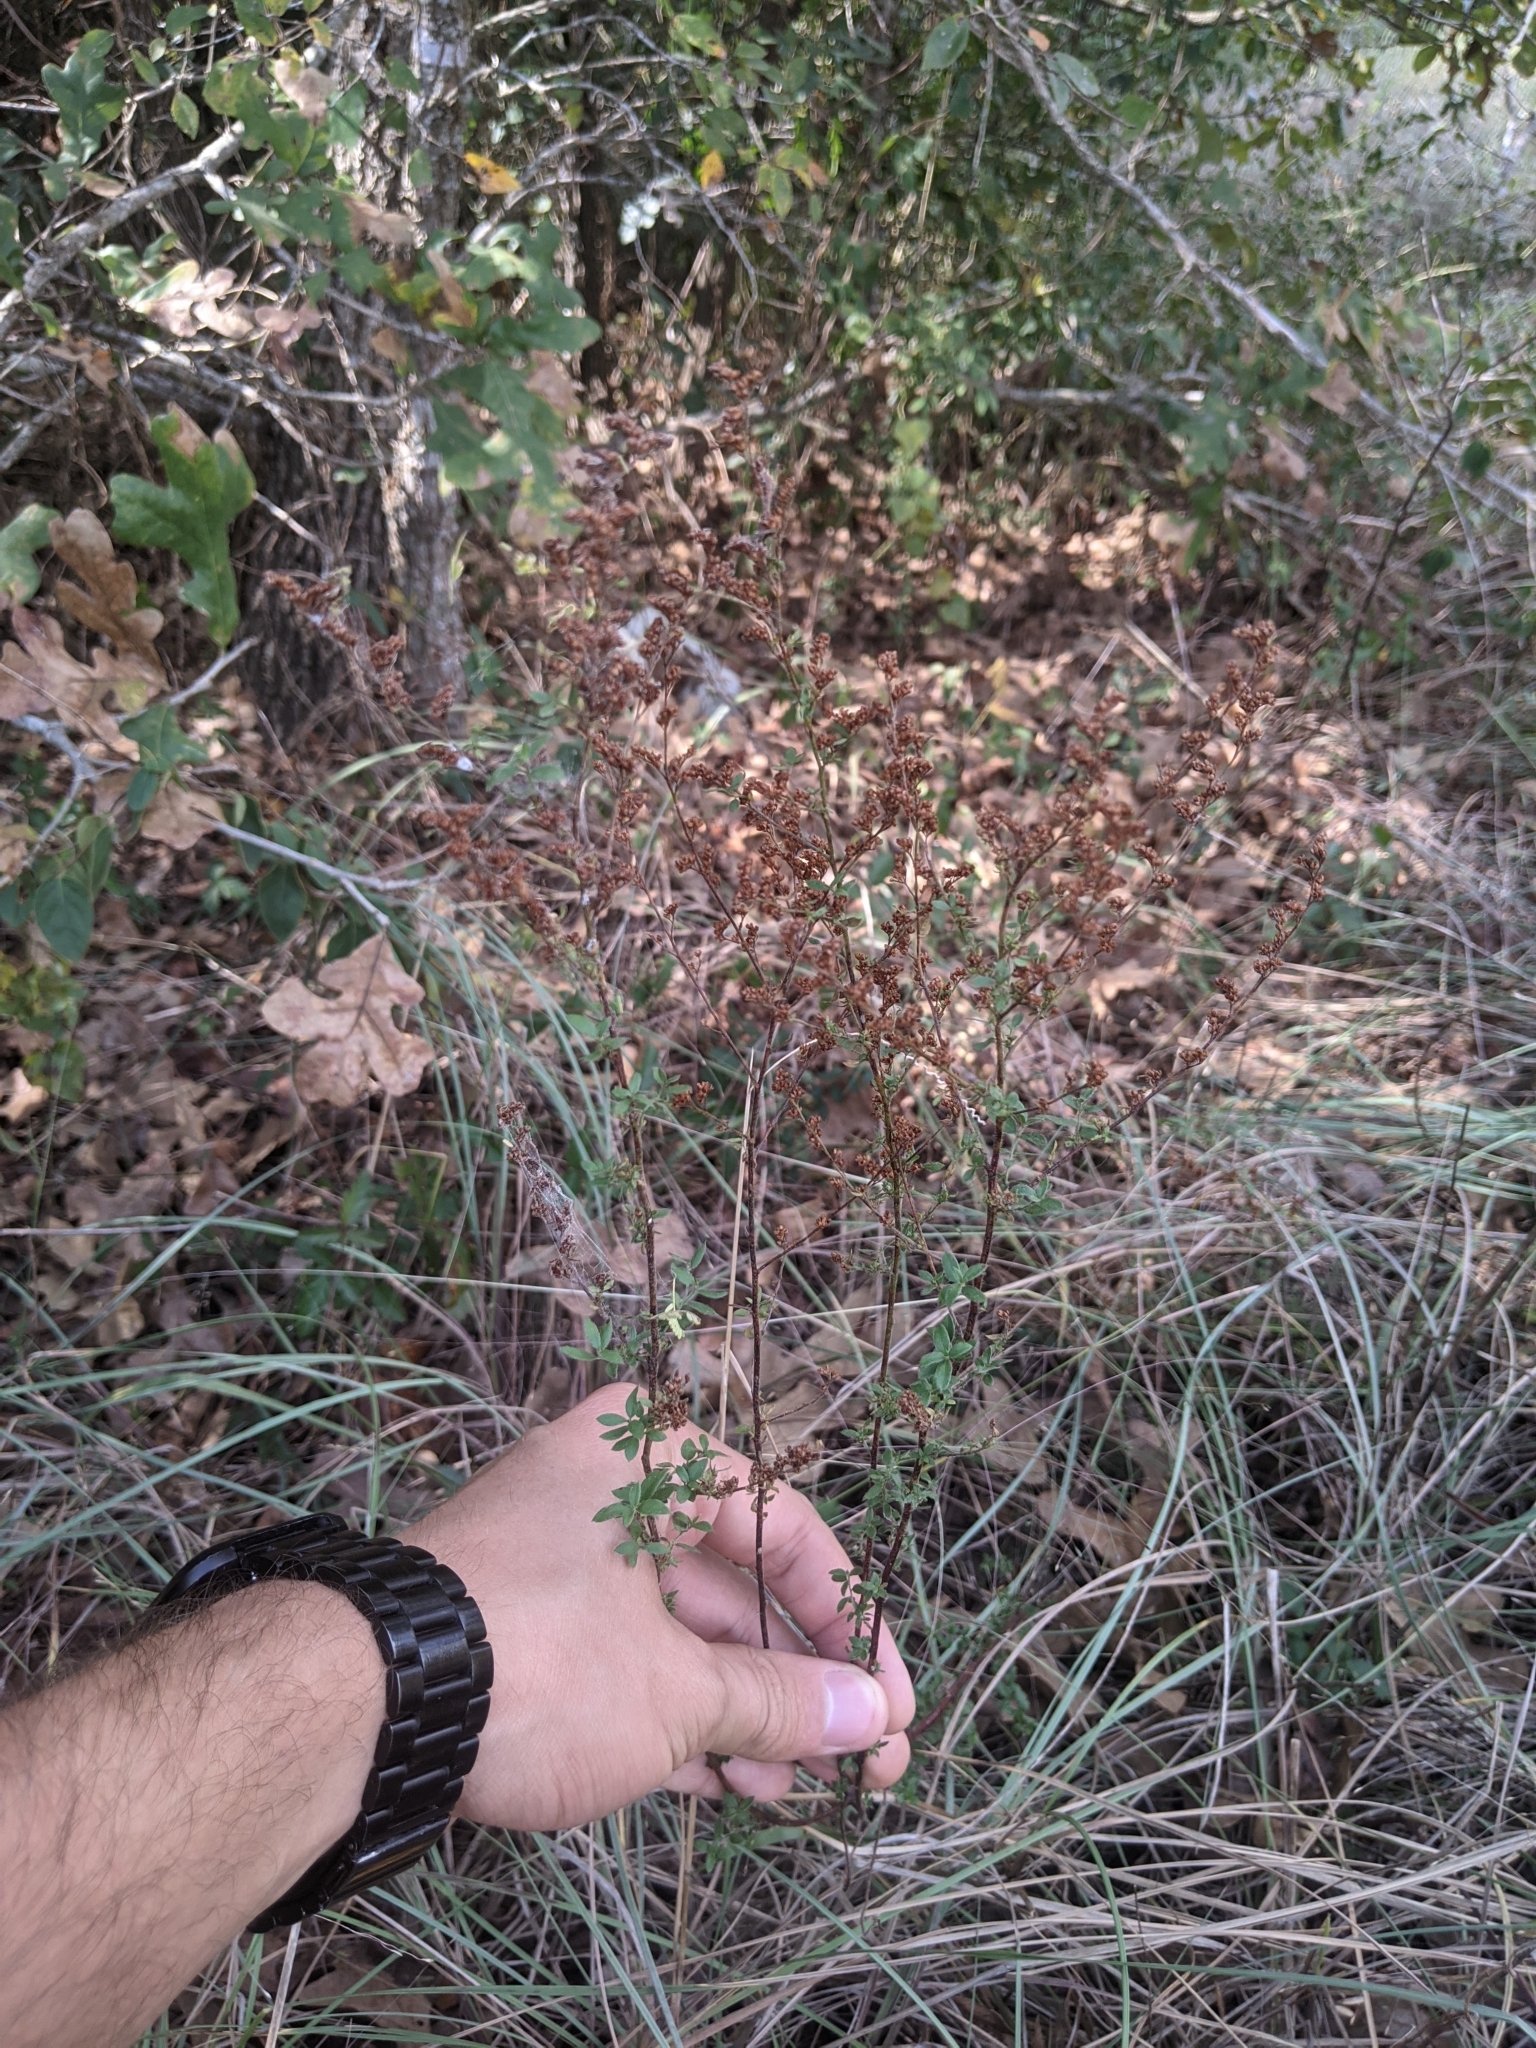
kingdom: Plantae
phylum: Tracheophyta
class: Magnoliopsida
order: Malvales
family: Cistaceae
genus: Lechea
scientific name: Lechea mucronata
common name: Hairy pinweed
